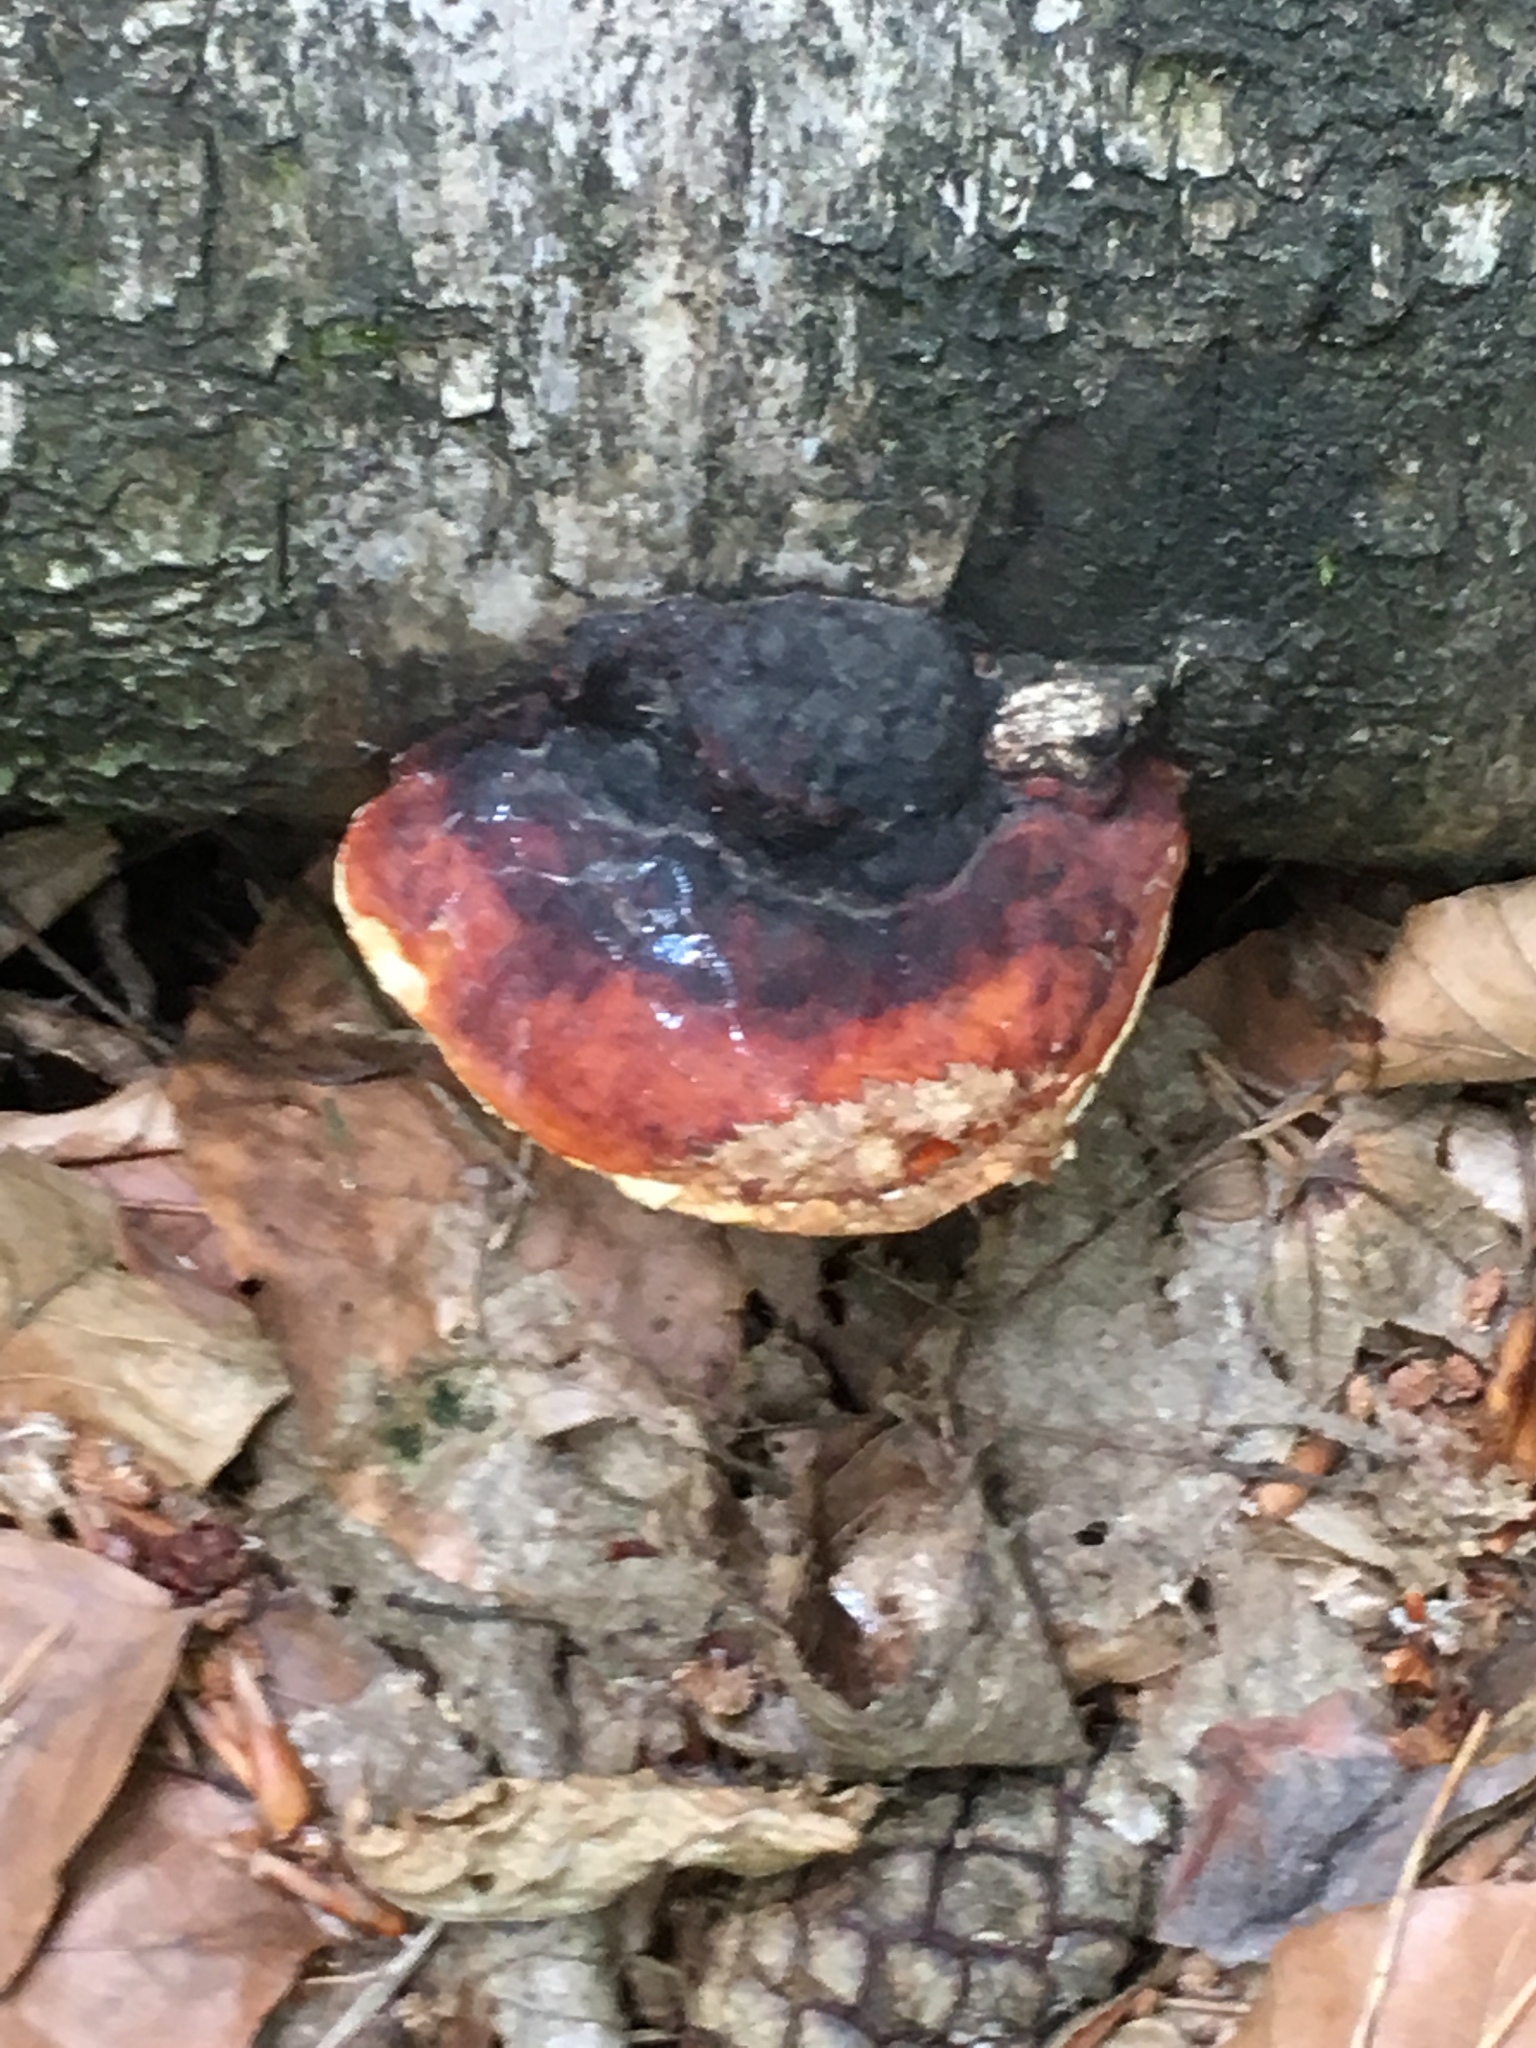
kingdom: Fungi
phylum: Basidiomycota
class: Agaricomycetes
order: Polyporales
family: Fomitopsidaceae
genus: Fomitopsis
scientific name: Fomitopsis pinicola
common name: Red-belted bracket
